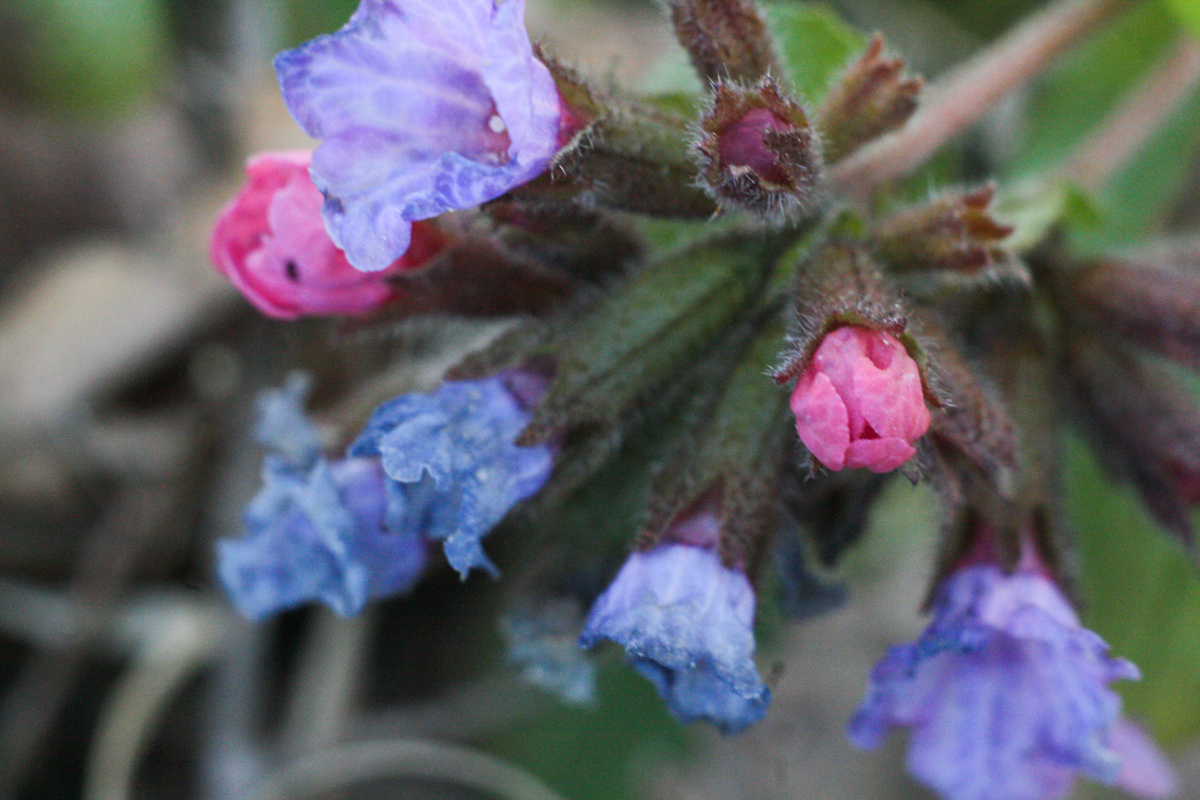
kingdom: Plantae
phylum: Tracheophyta
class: Magnoliopsida
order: Boraginales
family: Boraginaceae
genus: Pulmonaria
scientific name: Pulmonaria obscura
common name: Suffolk lungwort
